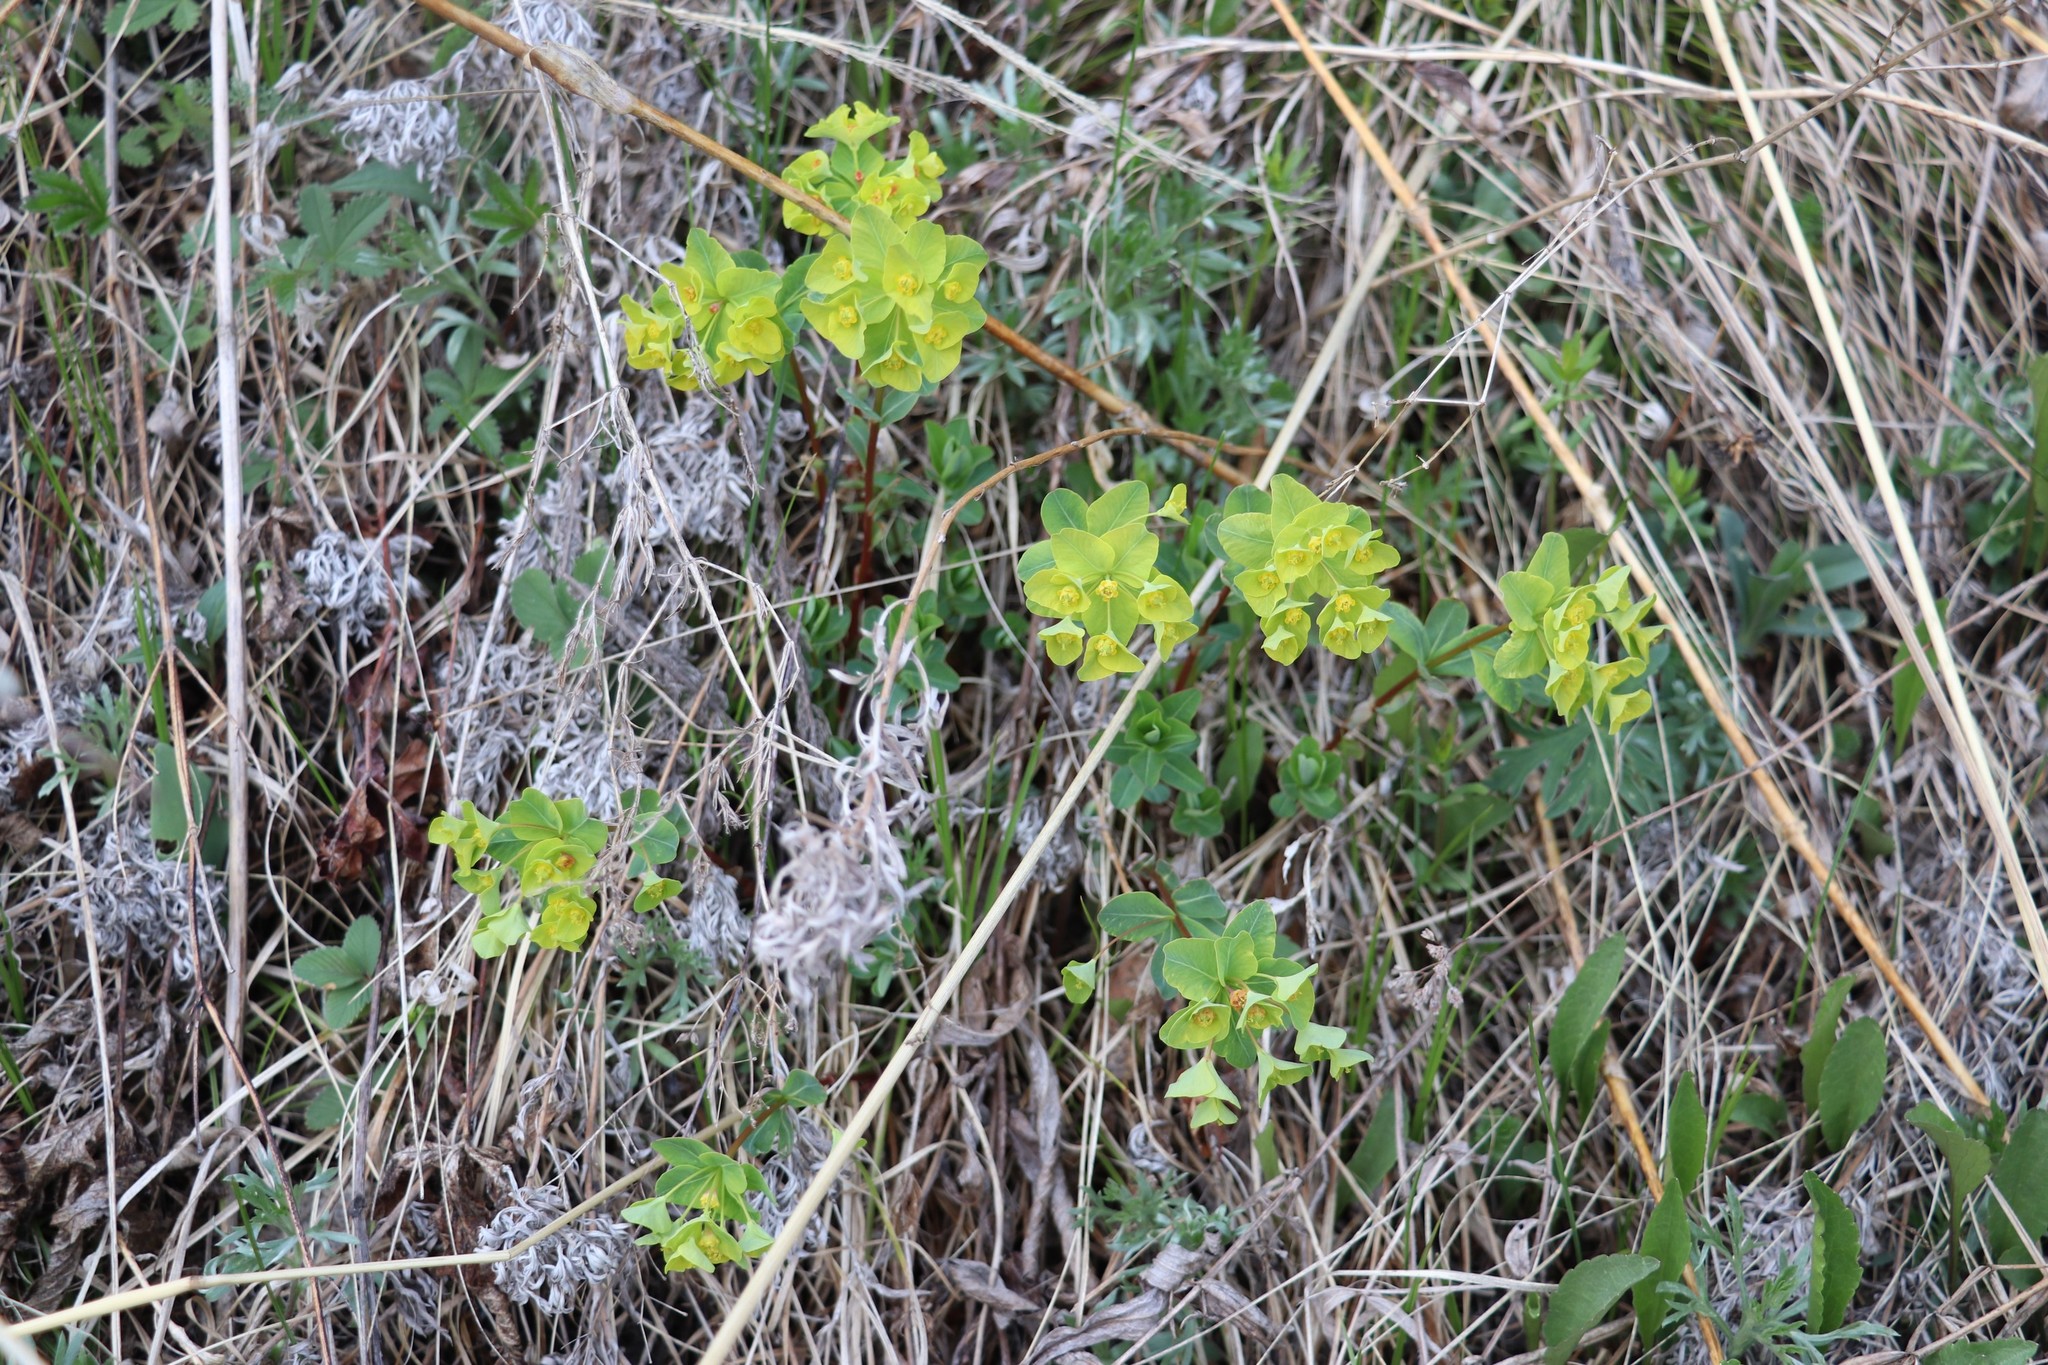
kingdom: Plantae
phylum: Tracheophyta
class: Magnoliopsida
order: Malpighiales
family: Euphorbiaceae
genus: Euphorbia
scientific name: Euphorbia altaica
